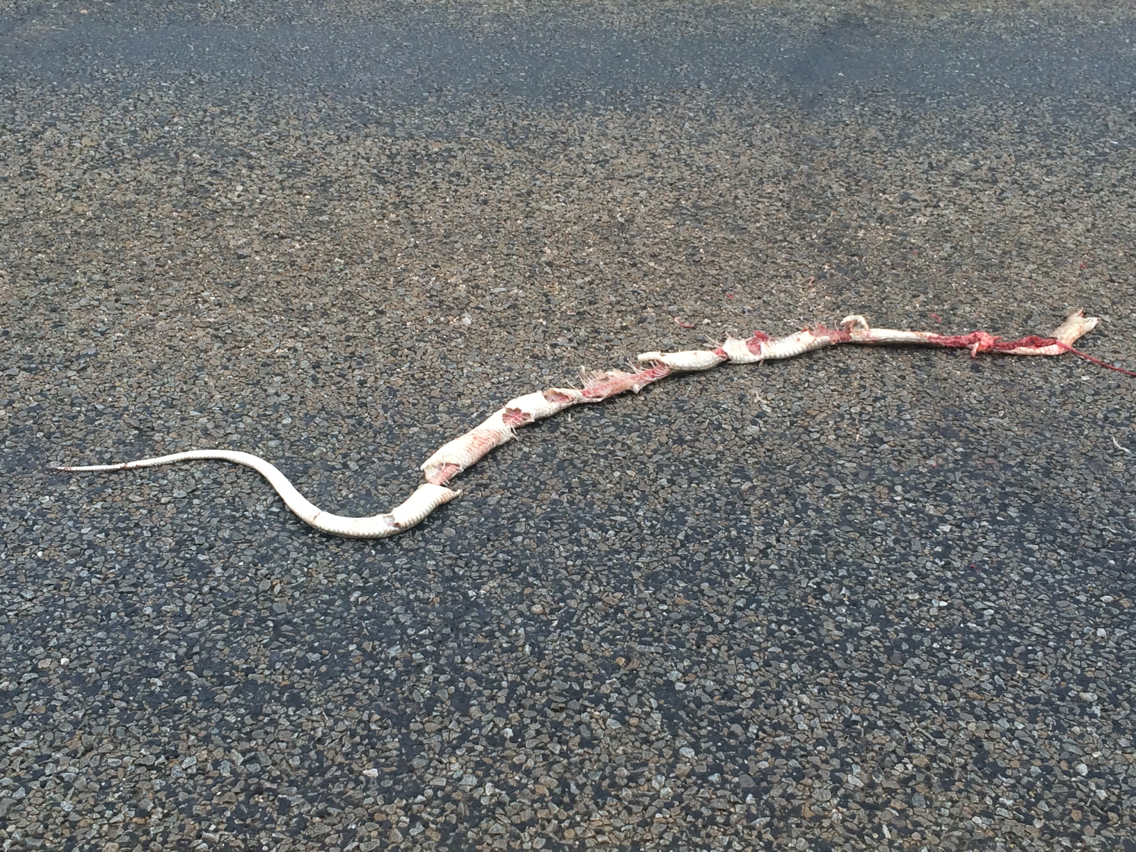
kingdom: Animalia
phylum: Chordata
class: Squamata
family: Colubridae
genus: Masticophis
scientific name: Masticophis flagellum
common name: Coachwhip
